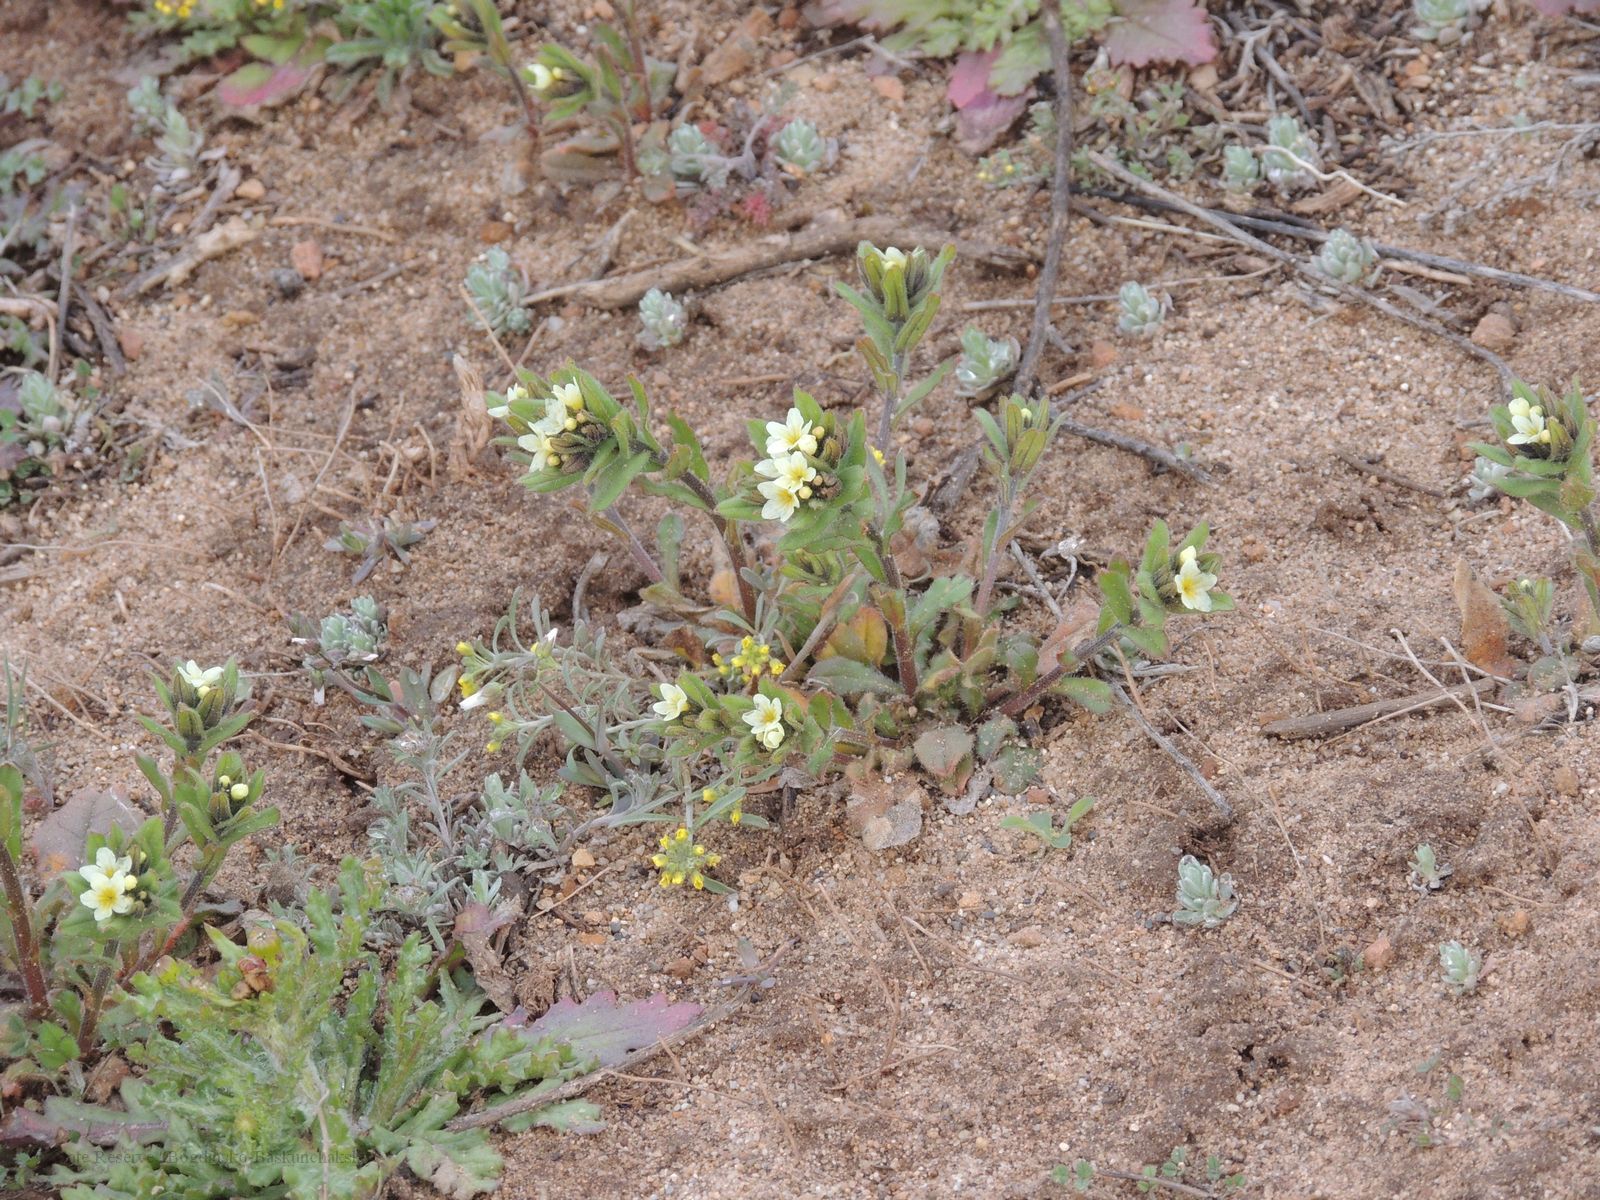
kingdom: Plantae
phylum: Tracheophyta
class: Magnoliopsida
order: Boraginales
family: Boraginaceae
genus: Buglossoides
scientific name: Buglossoides czernjajevii
